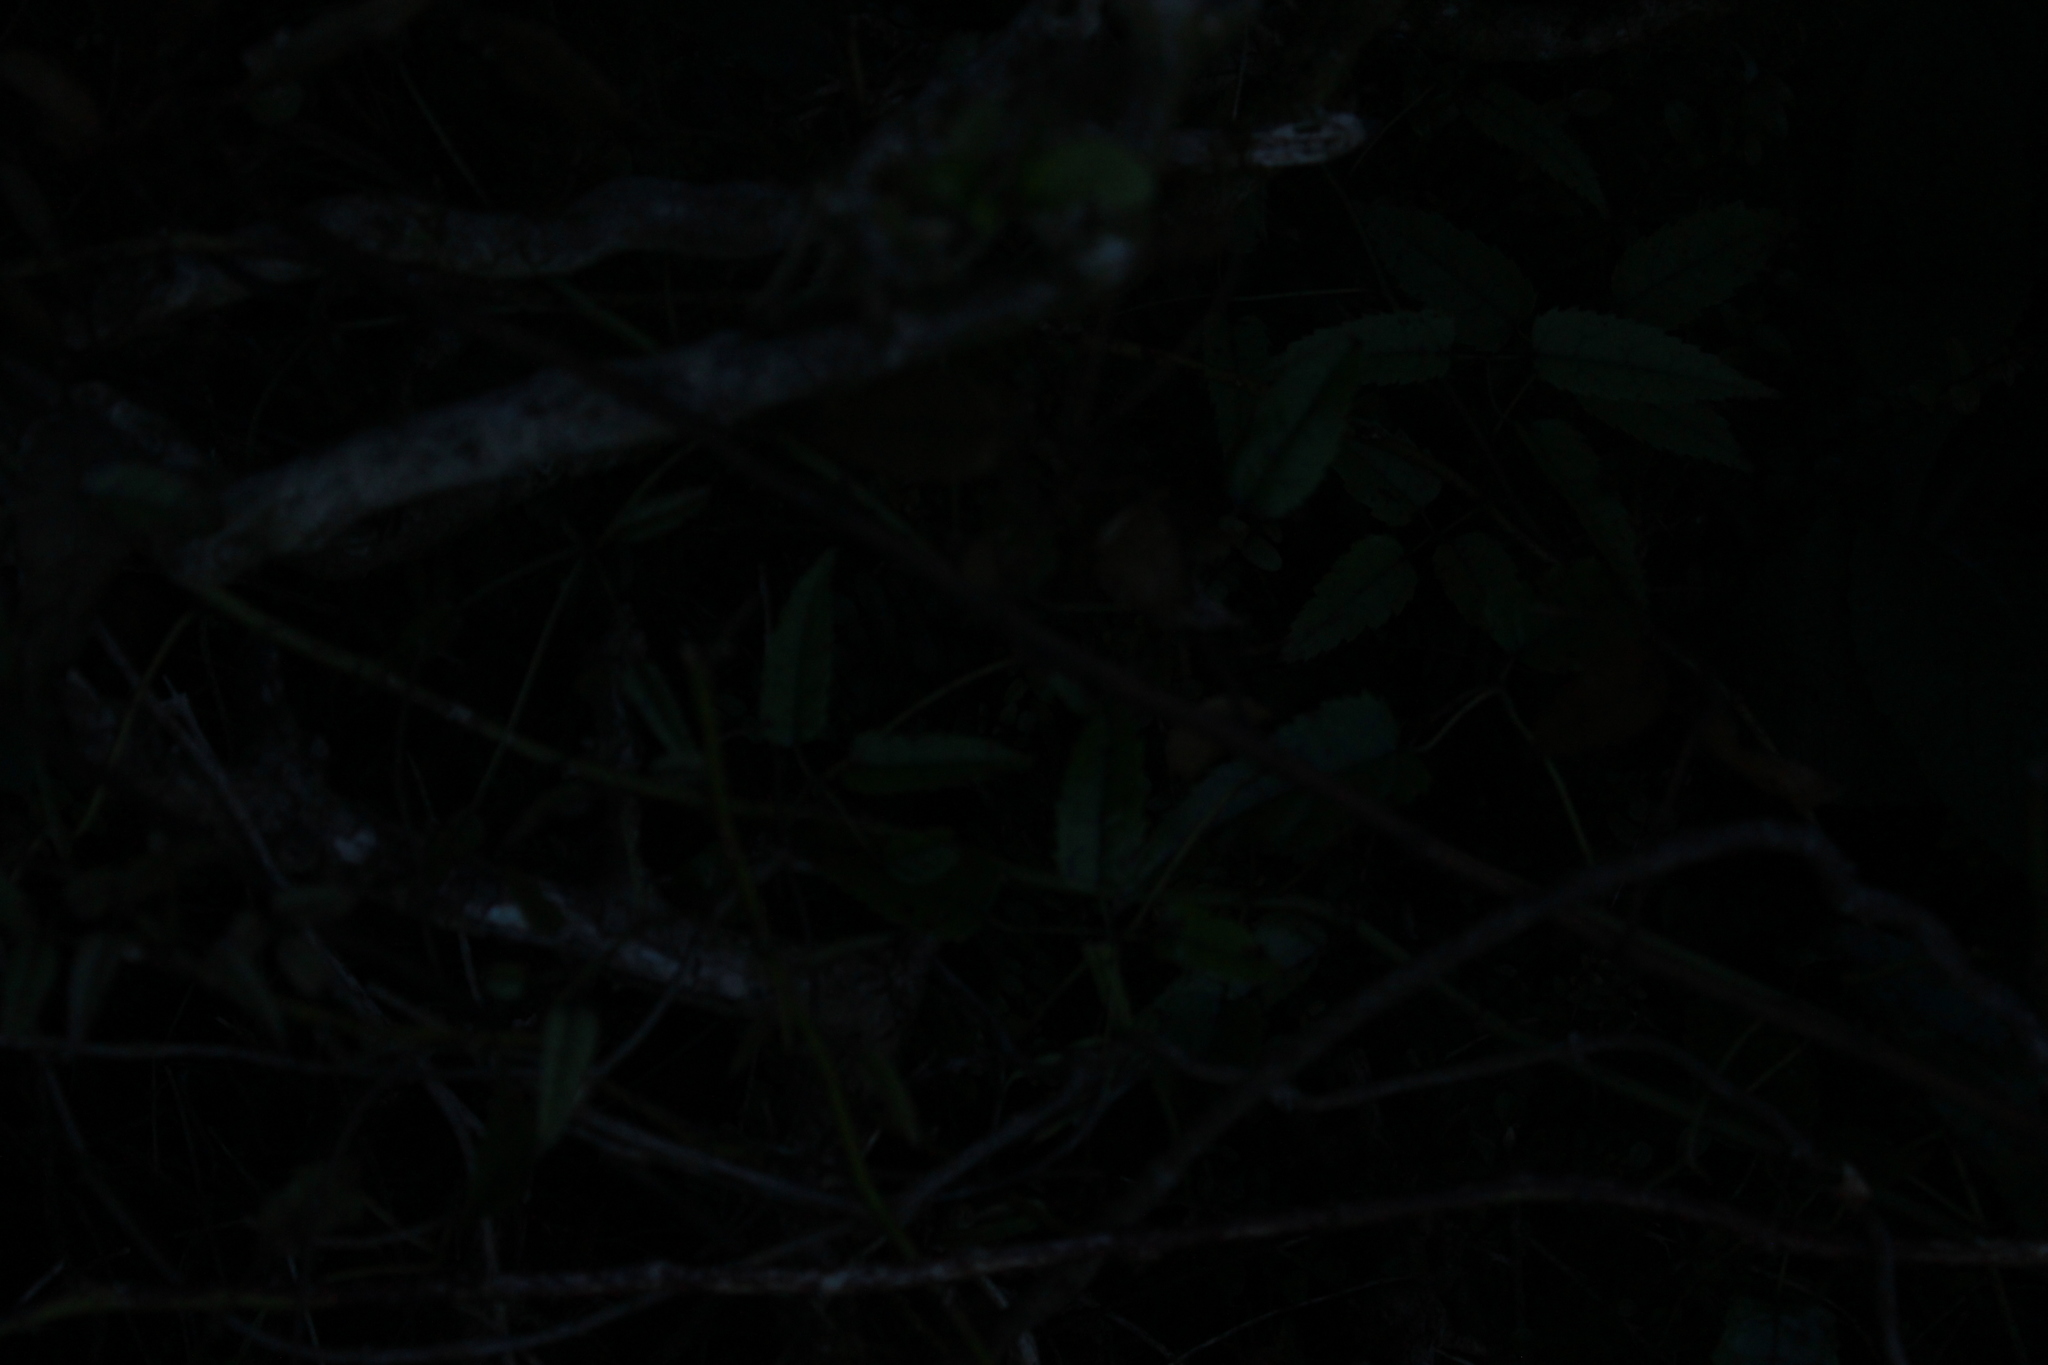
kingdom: Plantae
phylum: Tracheophyta
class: Magnoliopsida
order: Rosales
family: Rosaceae
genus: Rubus
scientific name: Rubus schmidelioides
